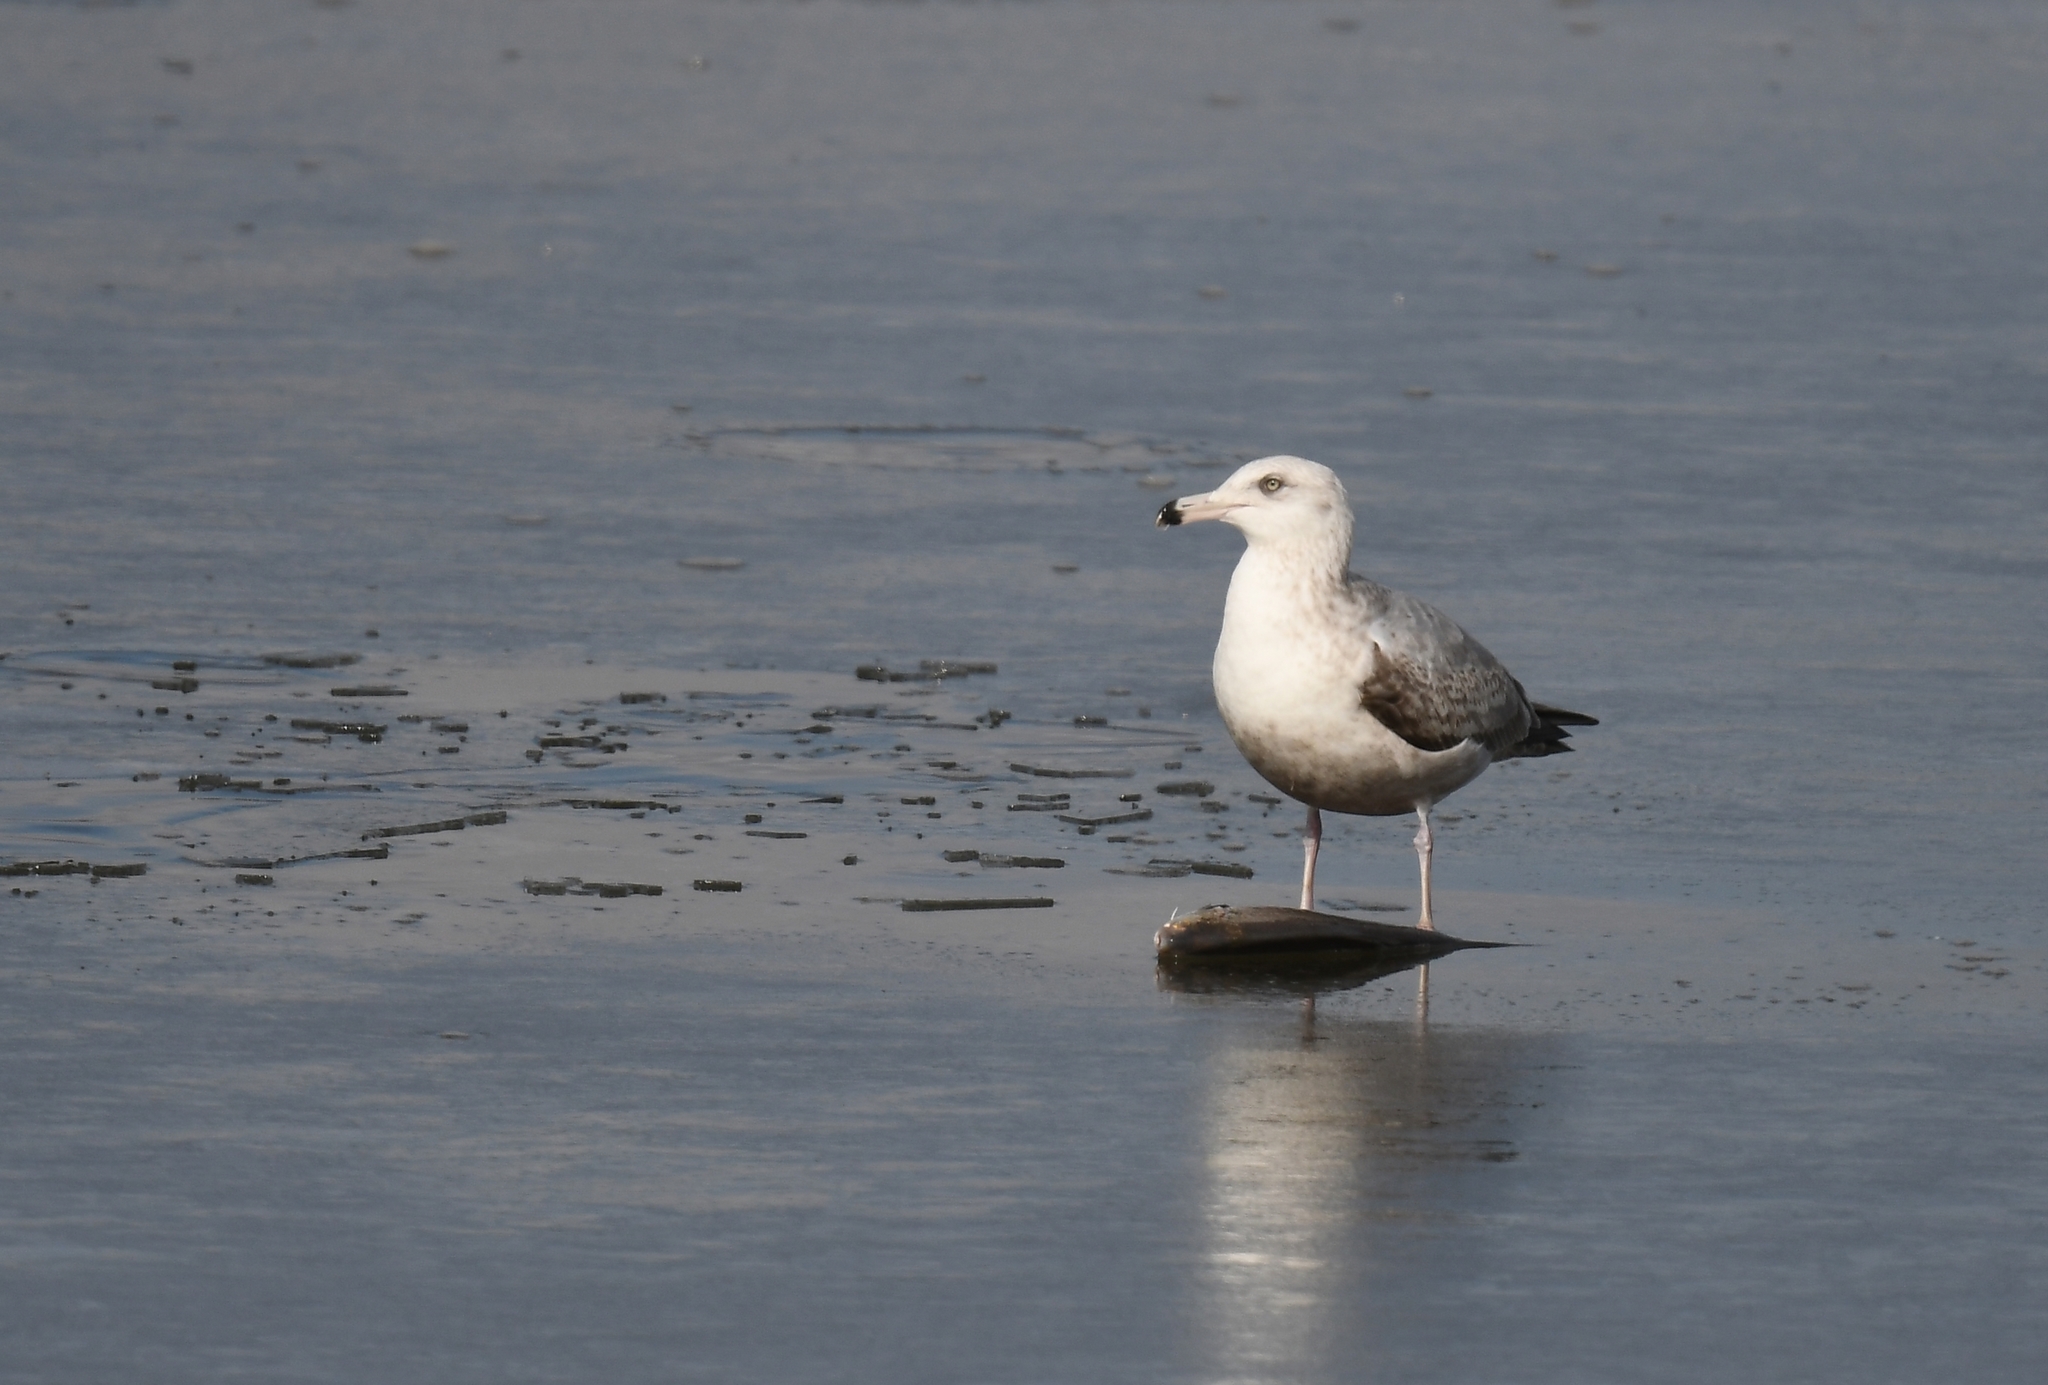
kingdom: Animalia
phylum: Chordata
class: Aves
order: Charadriiformes
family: Laridae
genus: Larus
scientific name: Larus argentatus
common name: Herring gull
